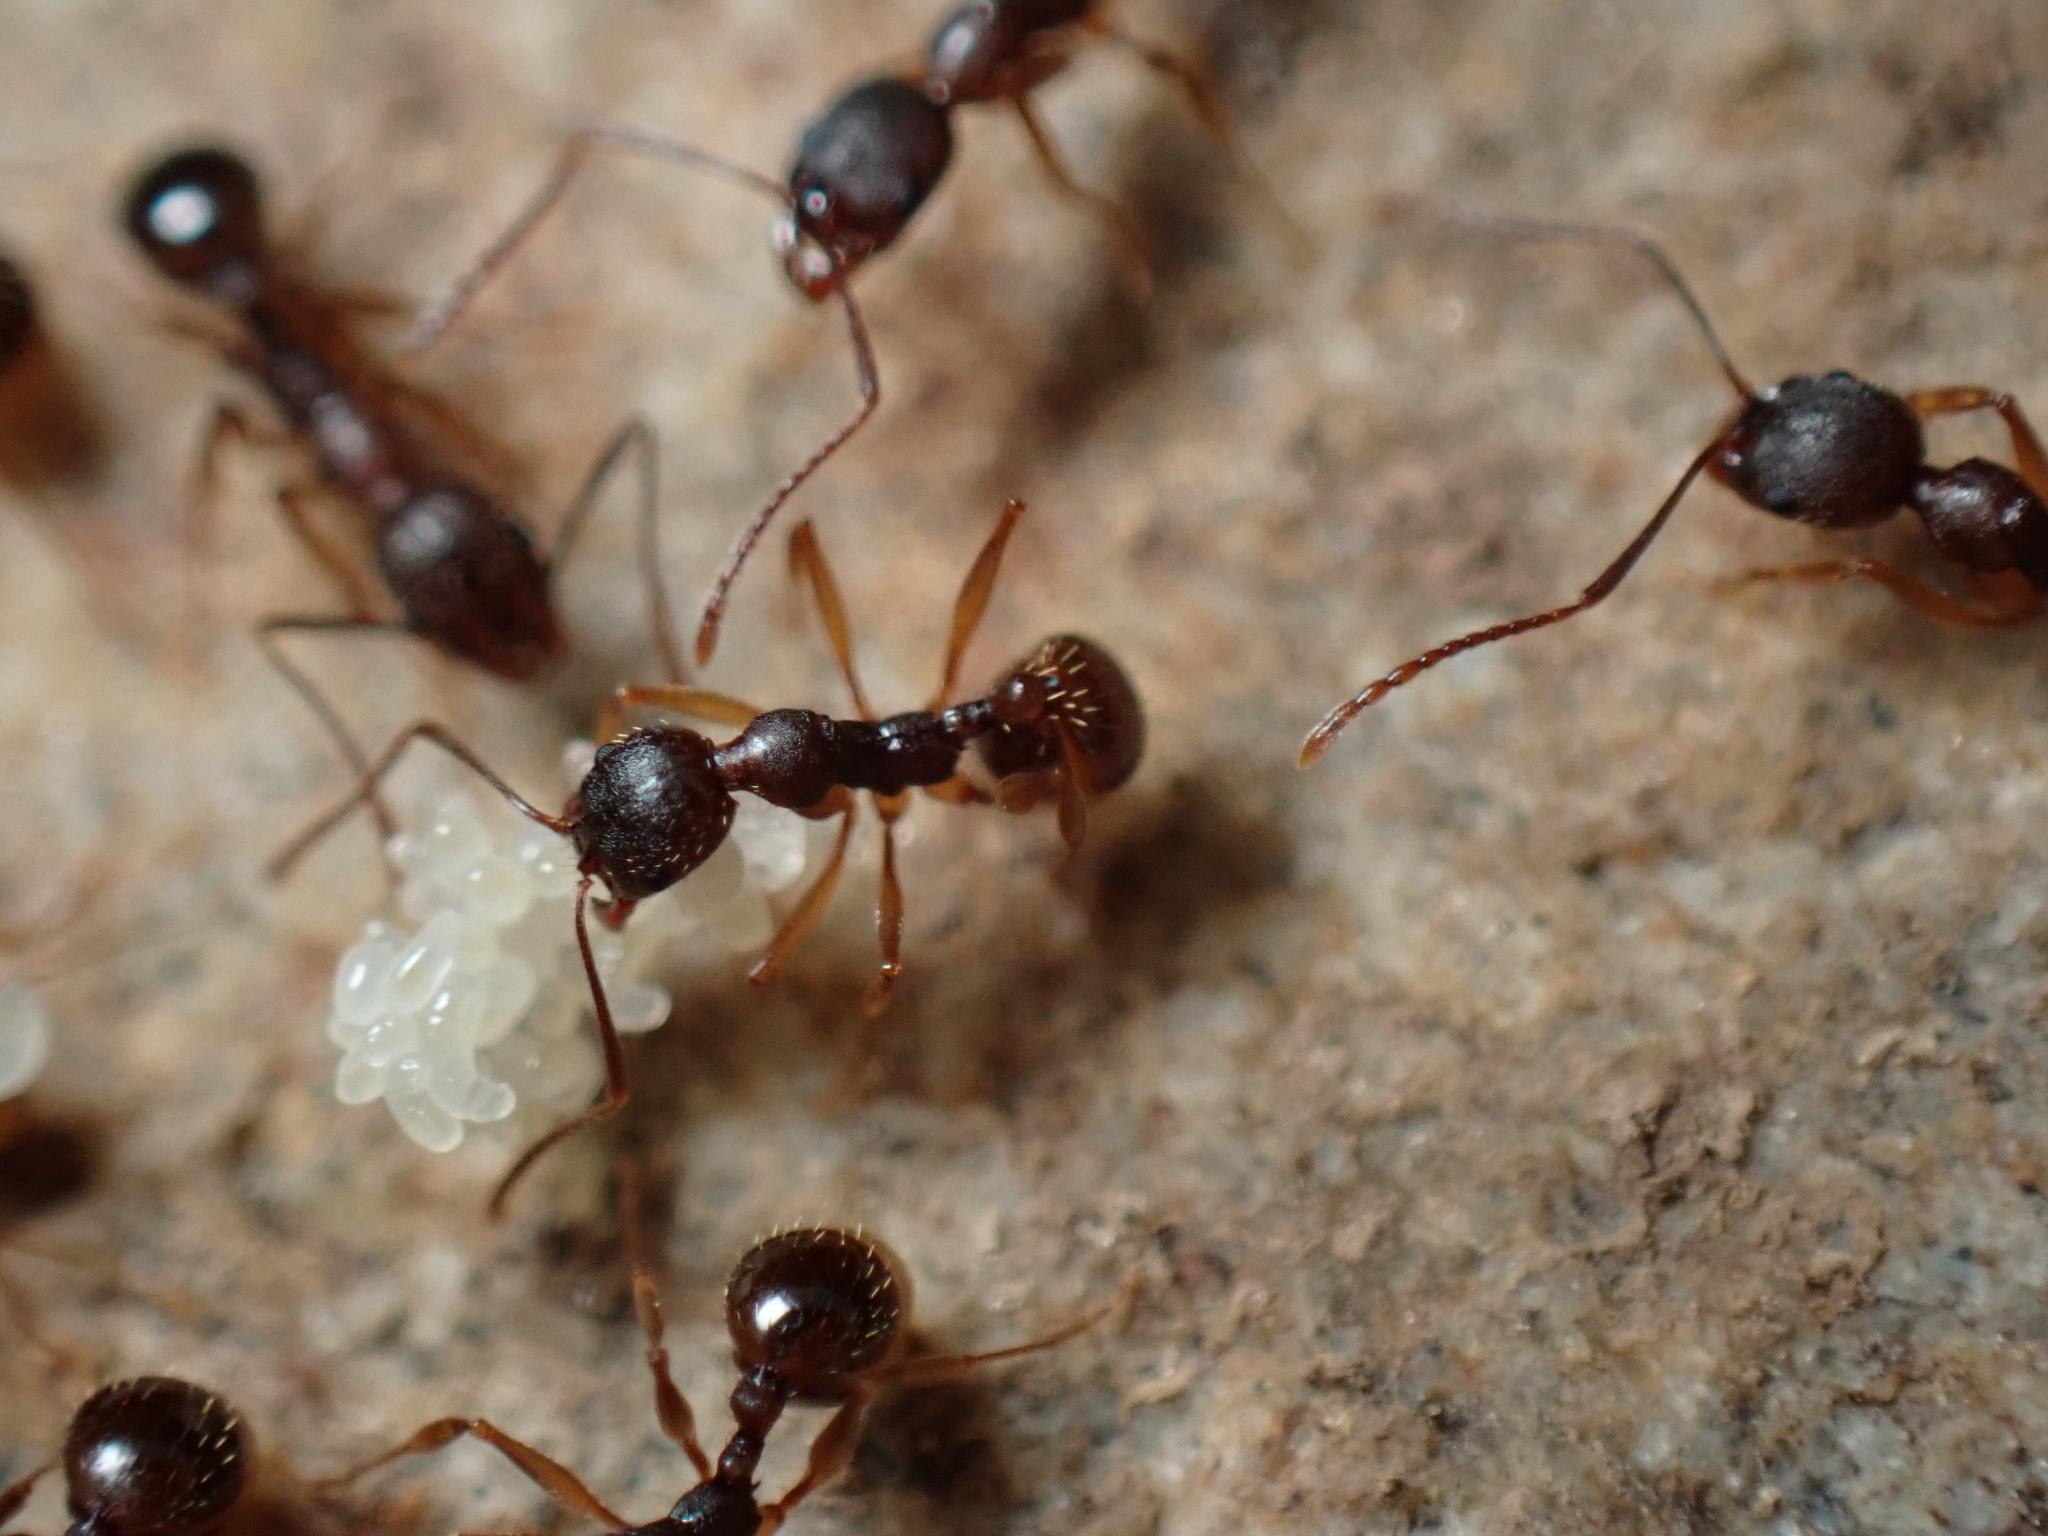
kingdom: Animalia
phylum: Arthropoda
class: Insecta
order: Hymenoptera
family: Formicidae
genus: Aphaenogaster
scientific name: Aphaenogaster rudis
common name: Winnow ant
